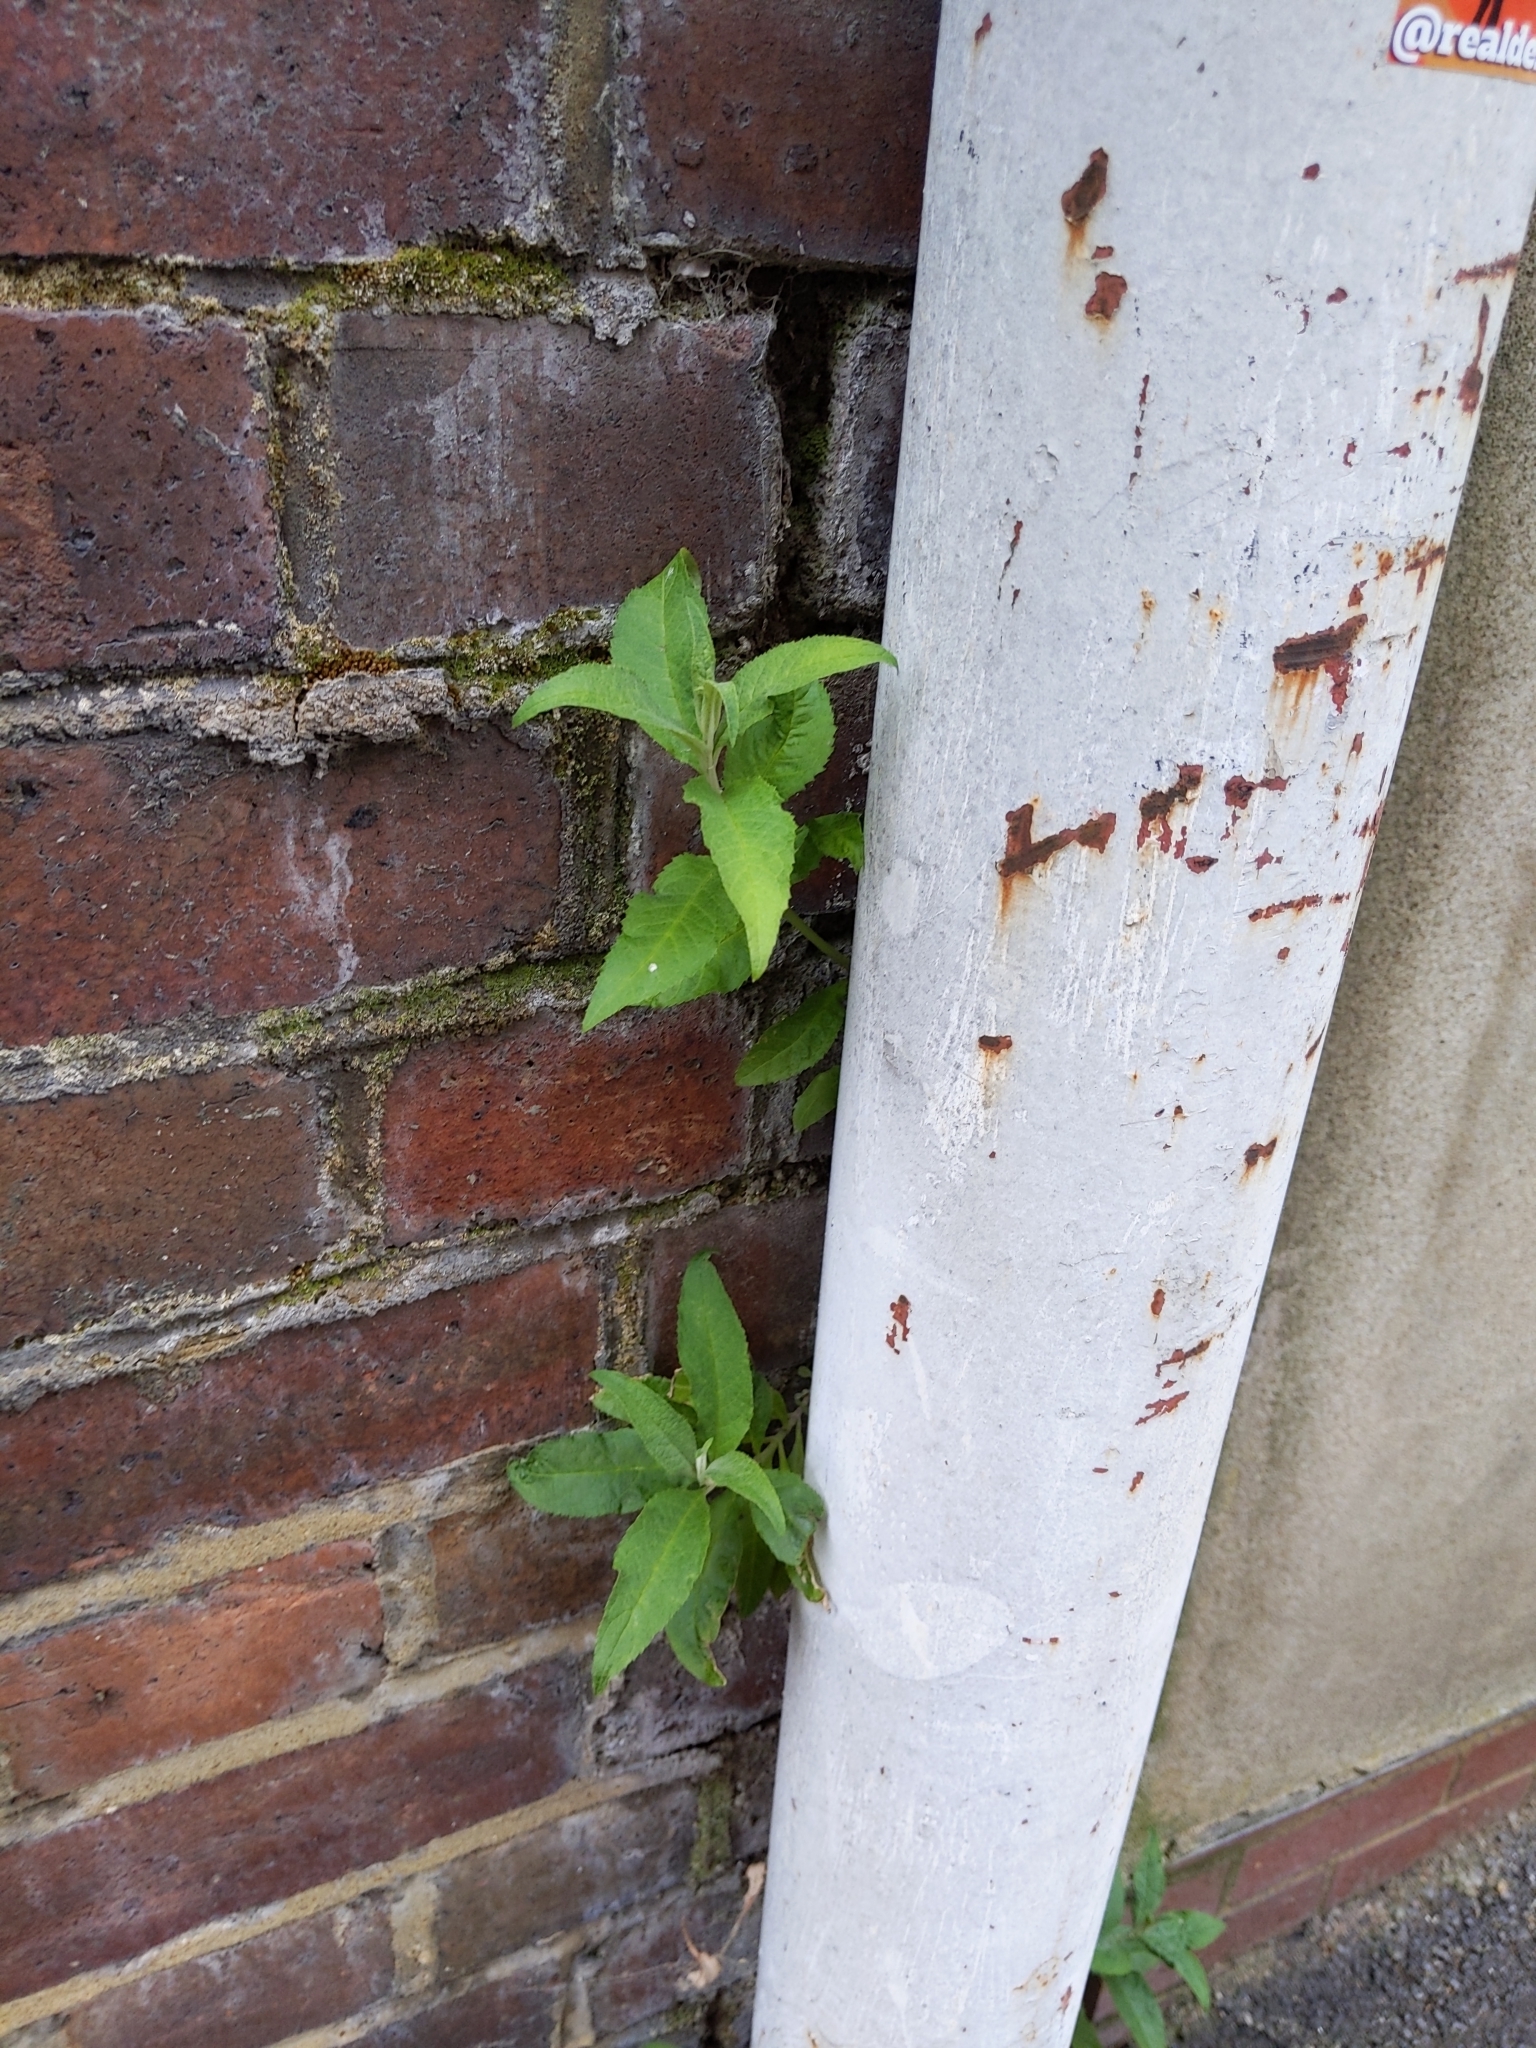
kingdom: Plantae
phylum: Tracheophyta
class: Magnoliopsida
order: Lamiales
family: Scrophulariaceae
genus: Buddleja
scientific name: Buddleja davidii
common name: Butterfly-bush
